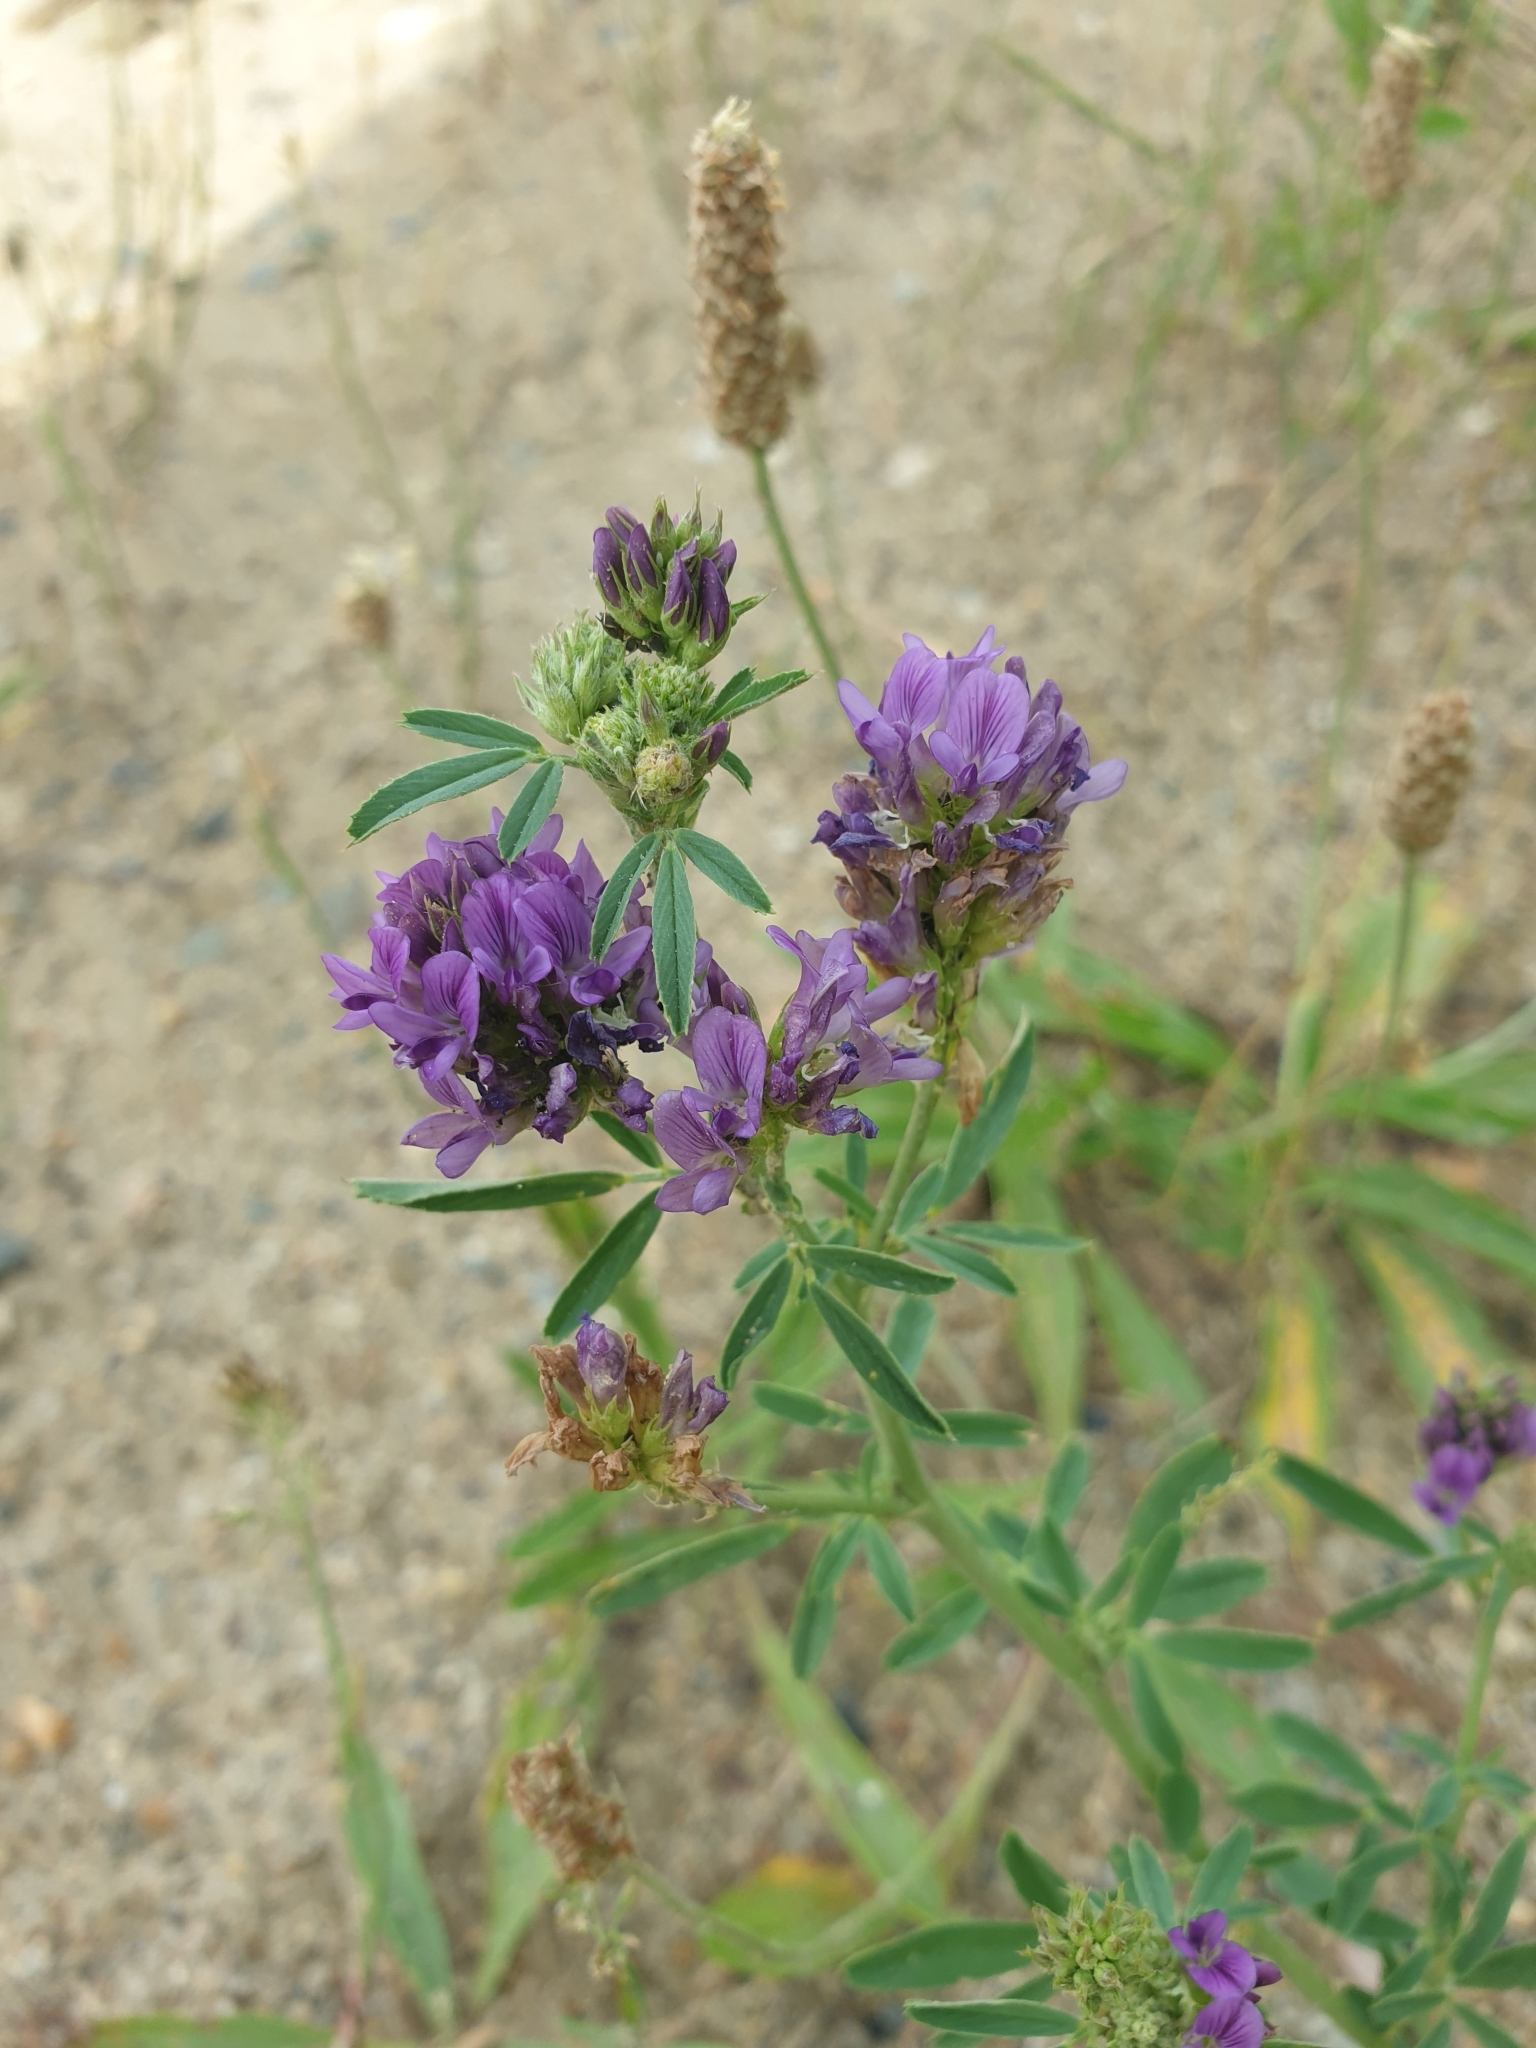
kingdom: Plantae
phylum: Tracheophyta
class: Magnoliopsida
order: Fabales
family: Fabaceae
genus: Medicago
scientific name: Medicago sativa
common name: Alfalfa
